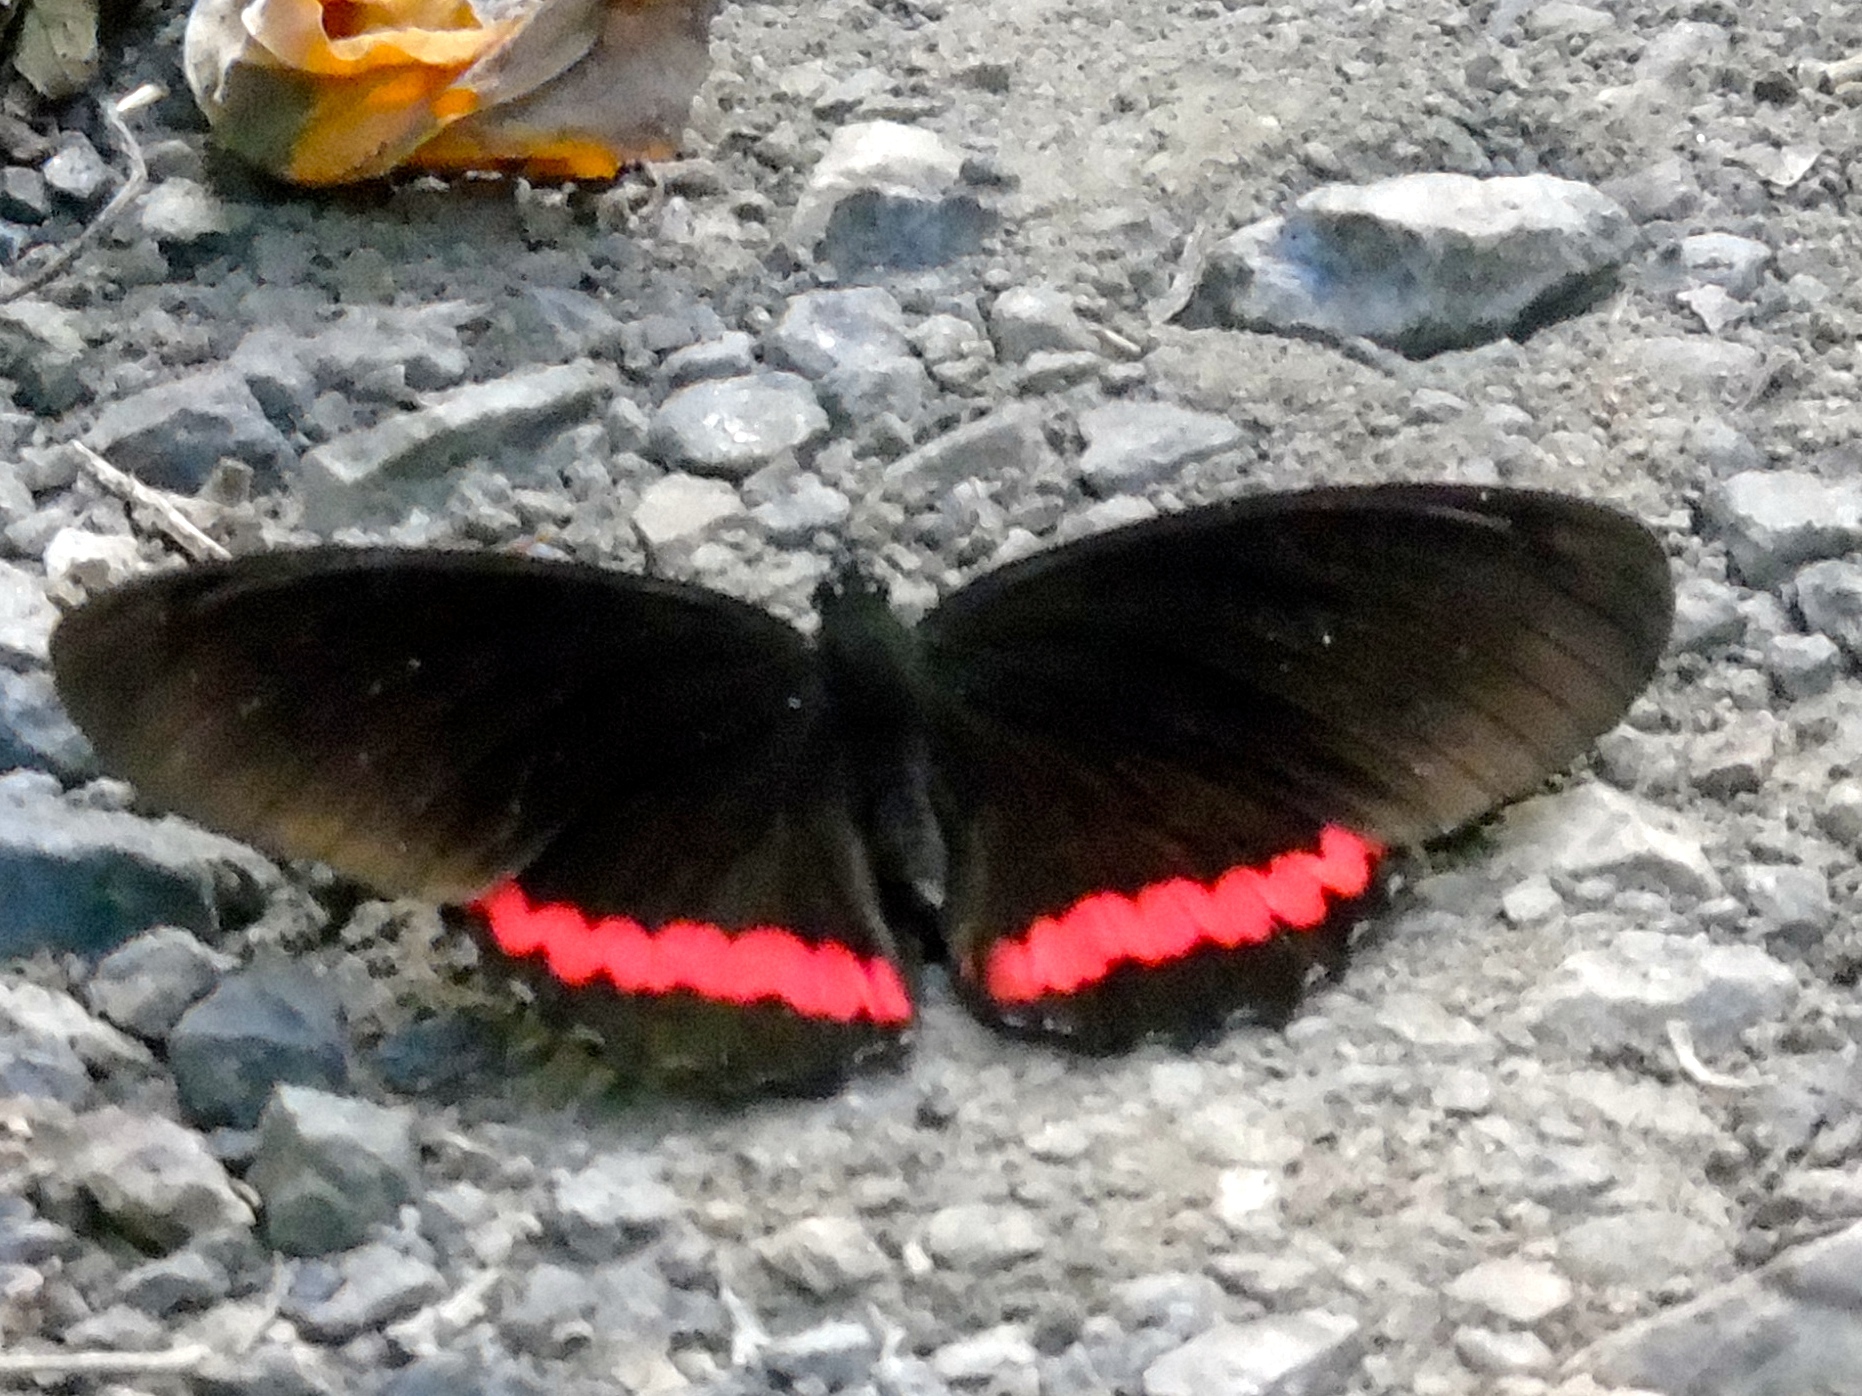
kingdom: Animalia
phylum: Arthropoda
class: Insecta
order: Lepidoptera
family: Nymphalidae
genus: Biblis
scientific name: Biblis
